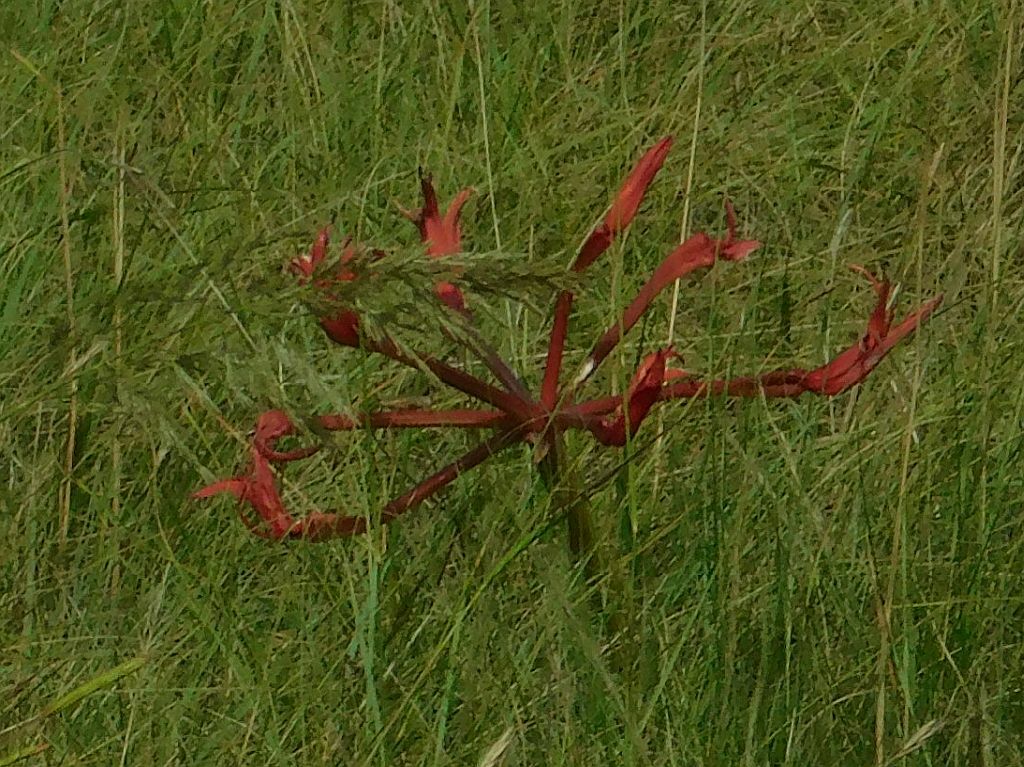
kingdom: Plantae
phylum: Tracheophyta
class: Liliopsida
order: Asparagales
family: Amaryllidaceae
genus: Brunsvigia
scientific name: Brunsvigia orientalis
